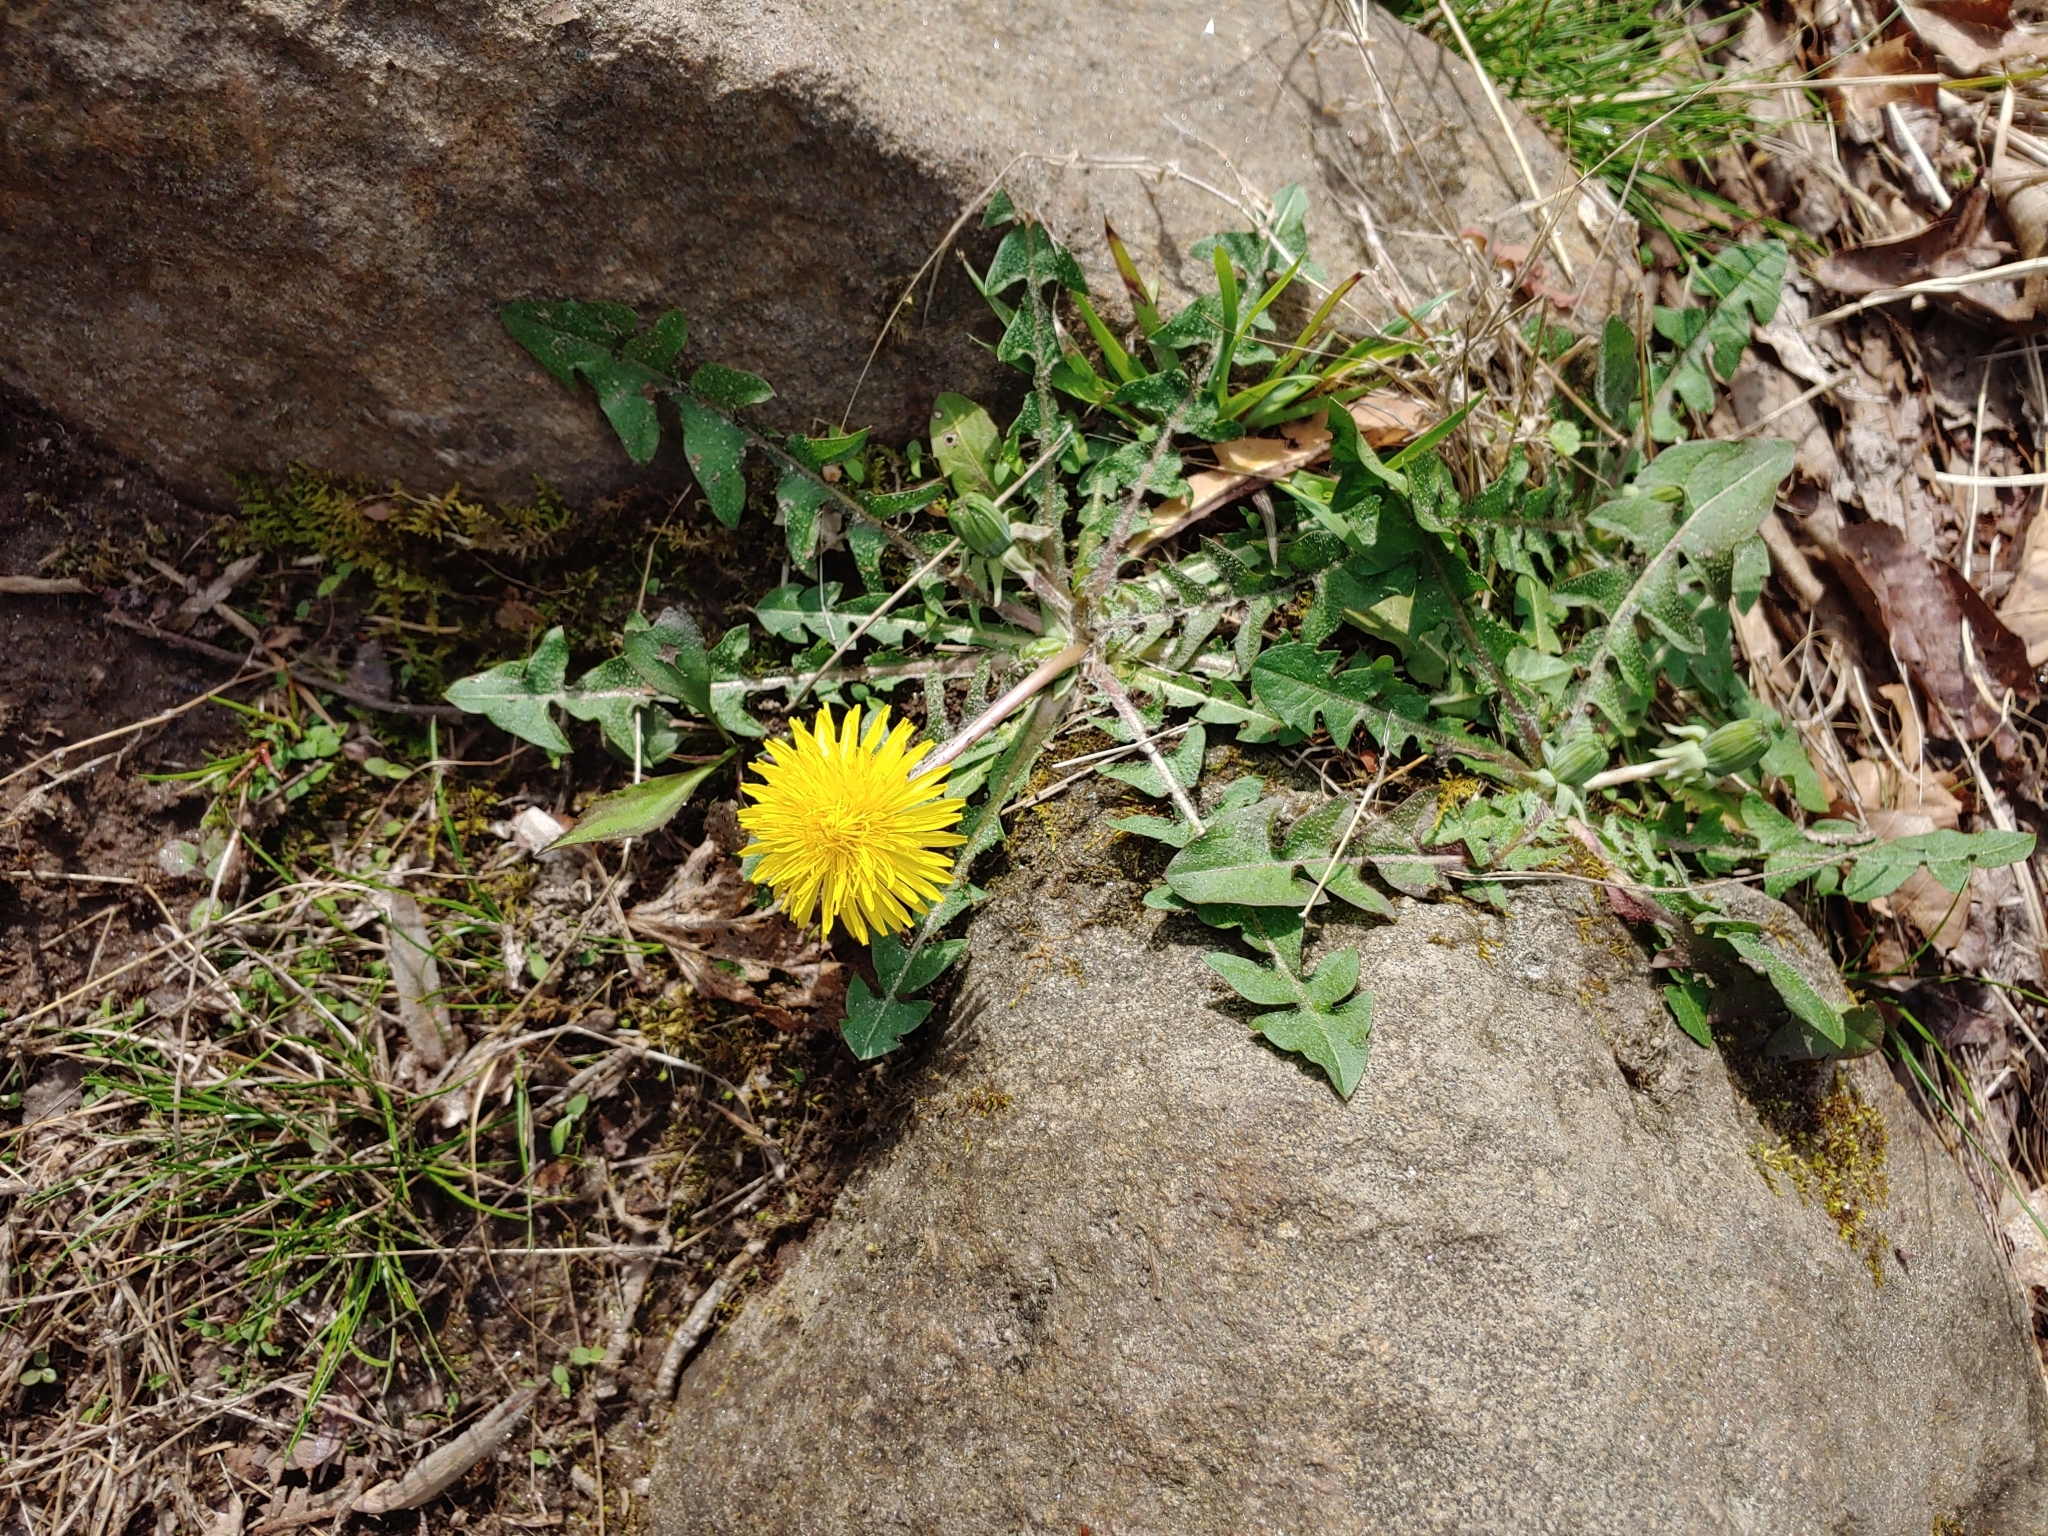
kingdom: Plantae
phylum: Tracheophyta
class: Magnoliopsida
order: Asterales
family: Asteraceae
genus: Taraxacum
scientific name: Taraxacum officinale
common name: Common dandelion
